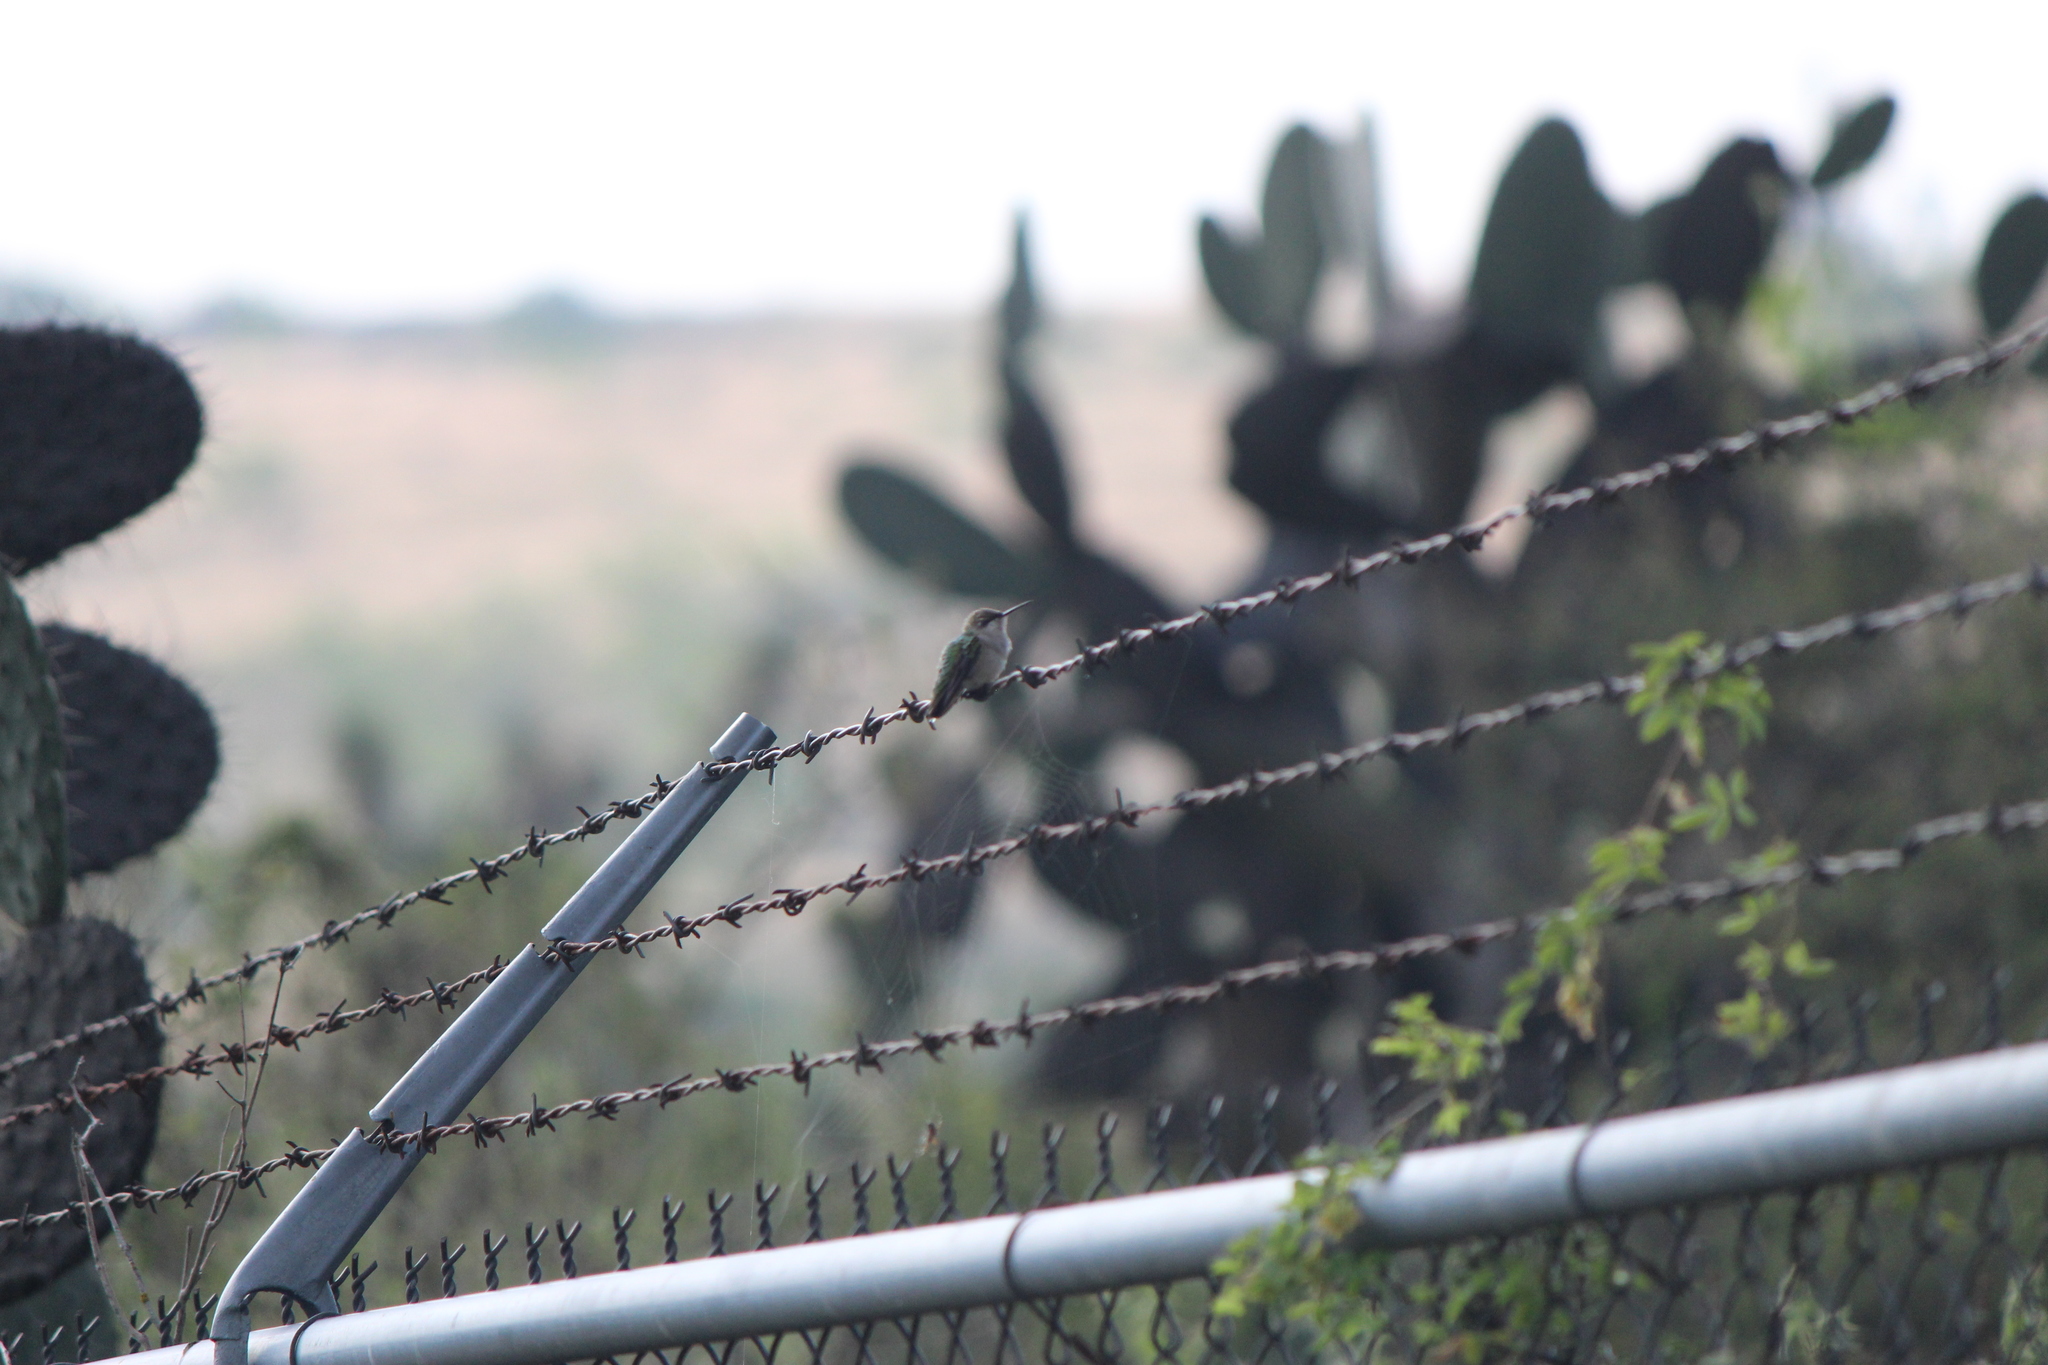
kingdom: Animalia
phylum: Chordata
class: Aves
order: Apodiformes
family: Trochilidae
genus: Archilochus
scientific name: Archilochus colubris
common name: Ruby-throated hummingbird
